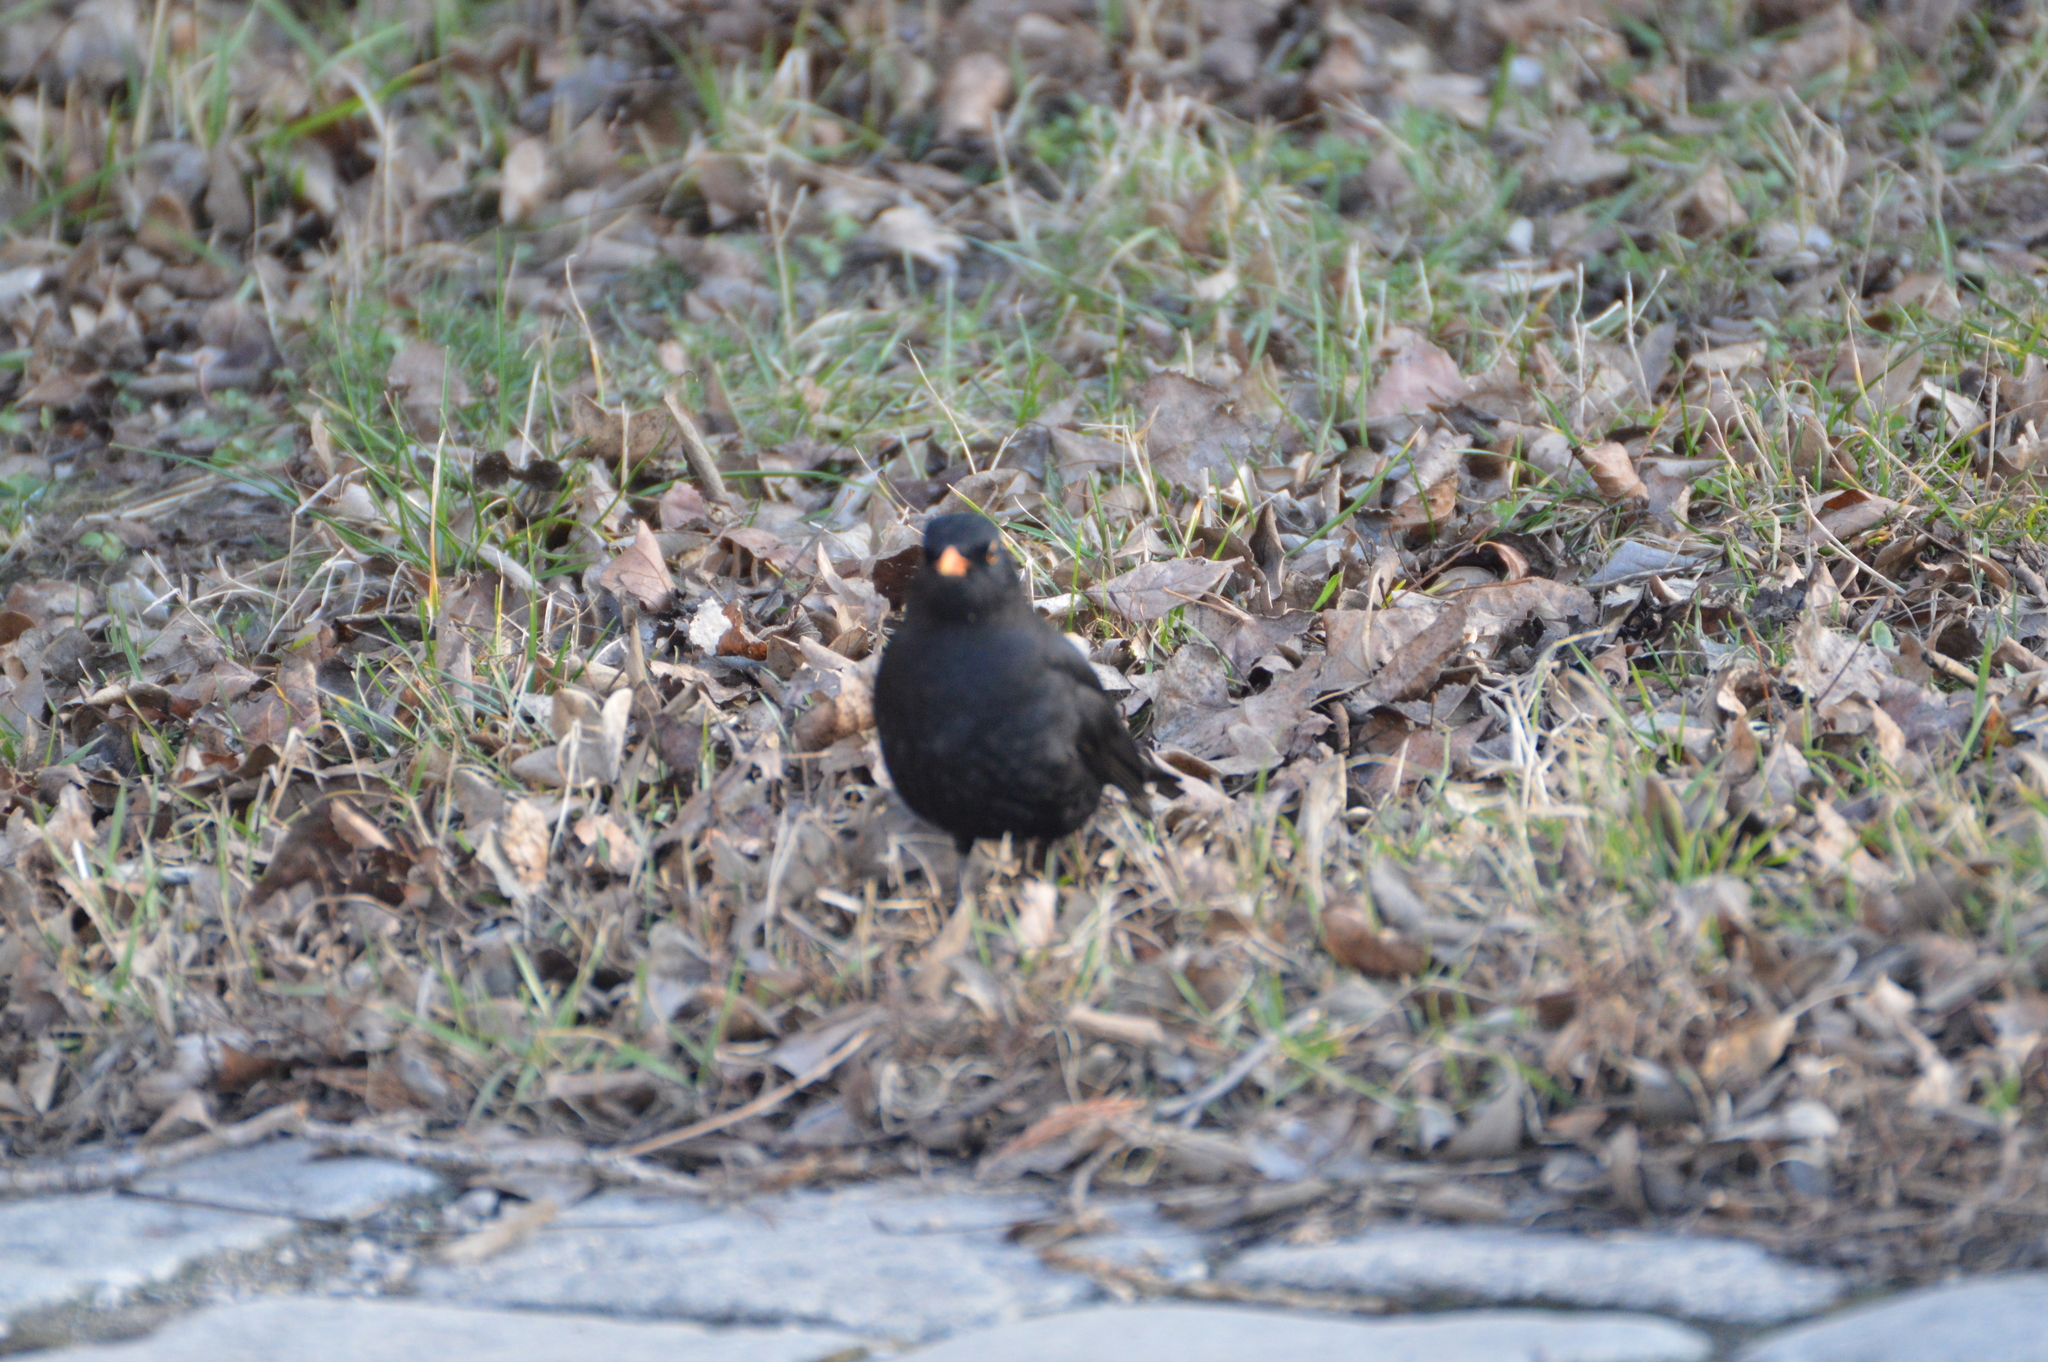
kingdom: Animalia
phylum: Chordata
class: Aves
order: Passeriformes
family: Turdidae
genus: Turdus
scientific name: Turdus merula
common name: Common blackbird
